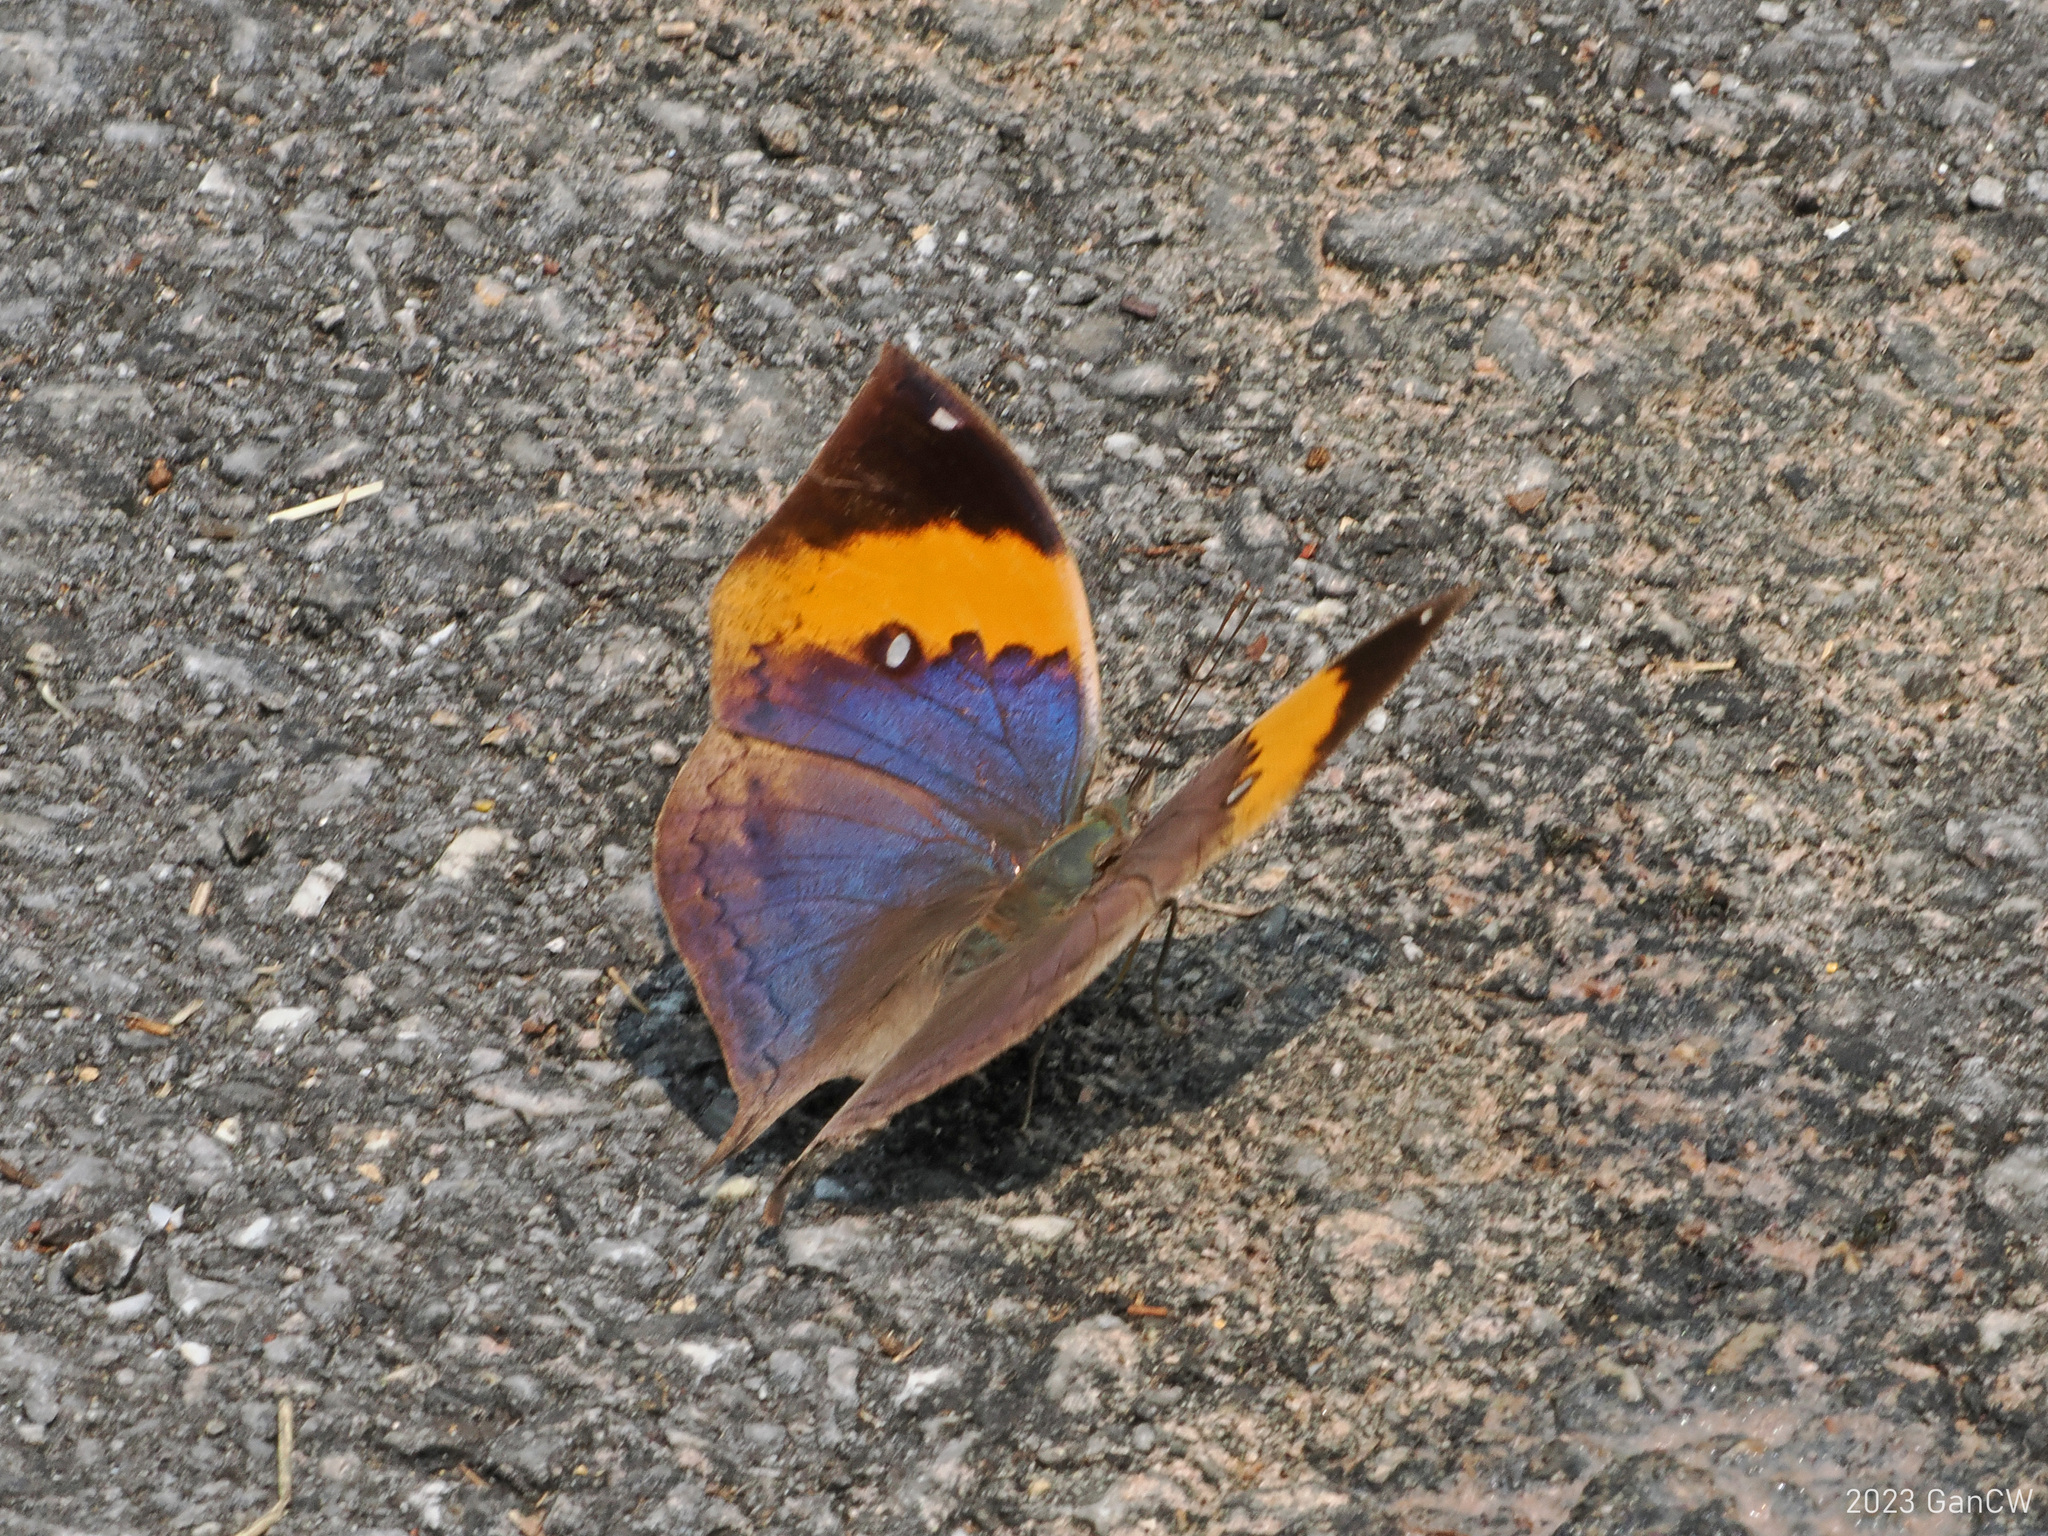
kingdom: Animalia
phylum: Arthropoda
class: Insecta
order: Lepidoptera
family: Nymphalidae
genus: Kallima
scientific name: Kallima inachus
